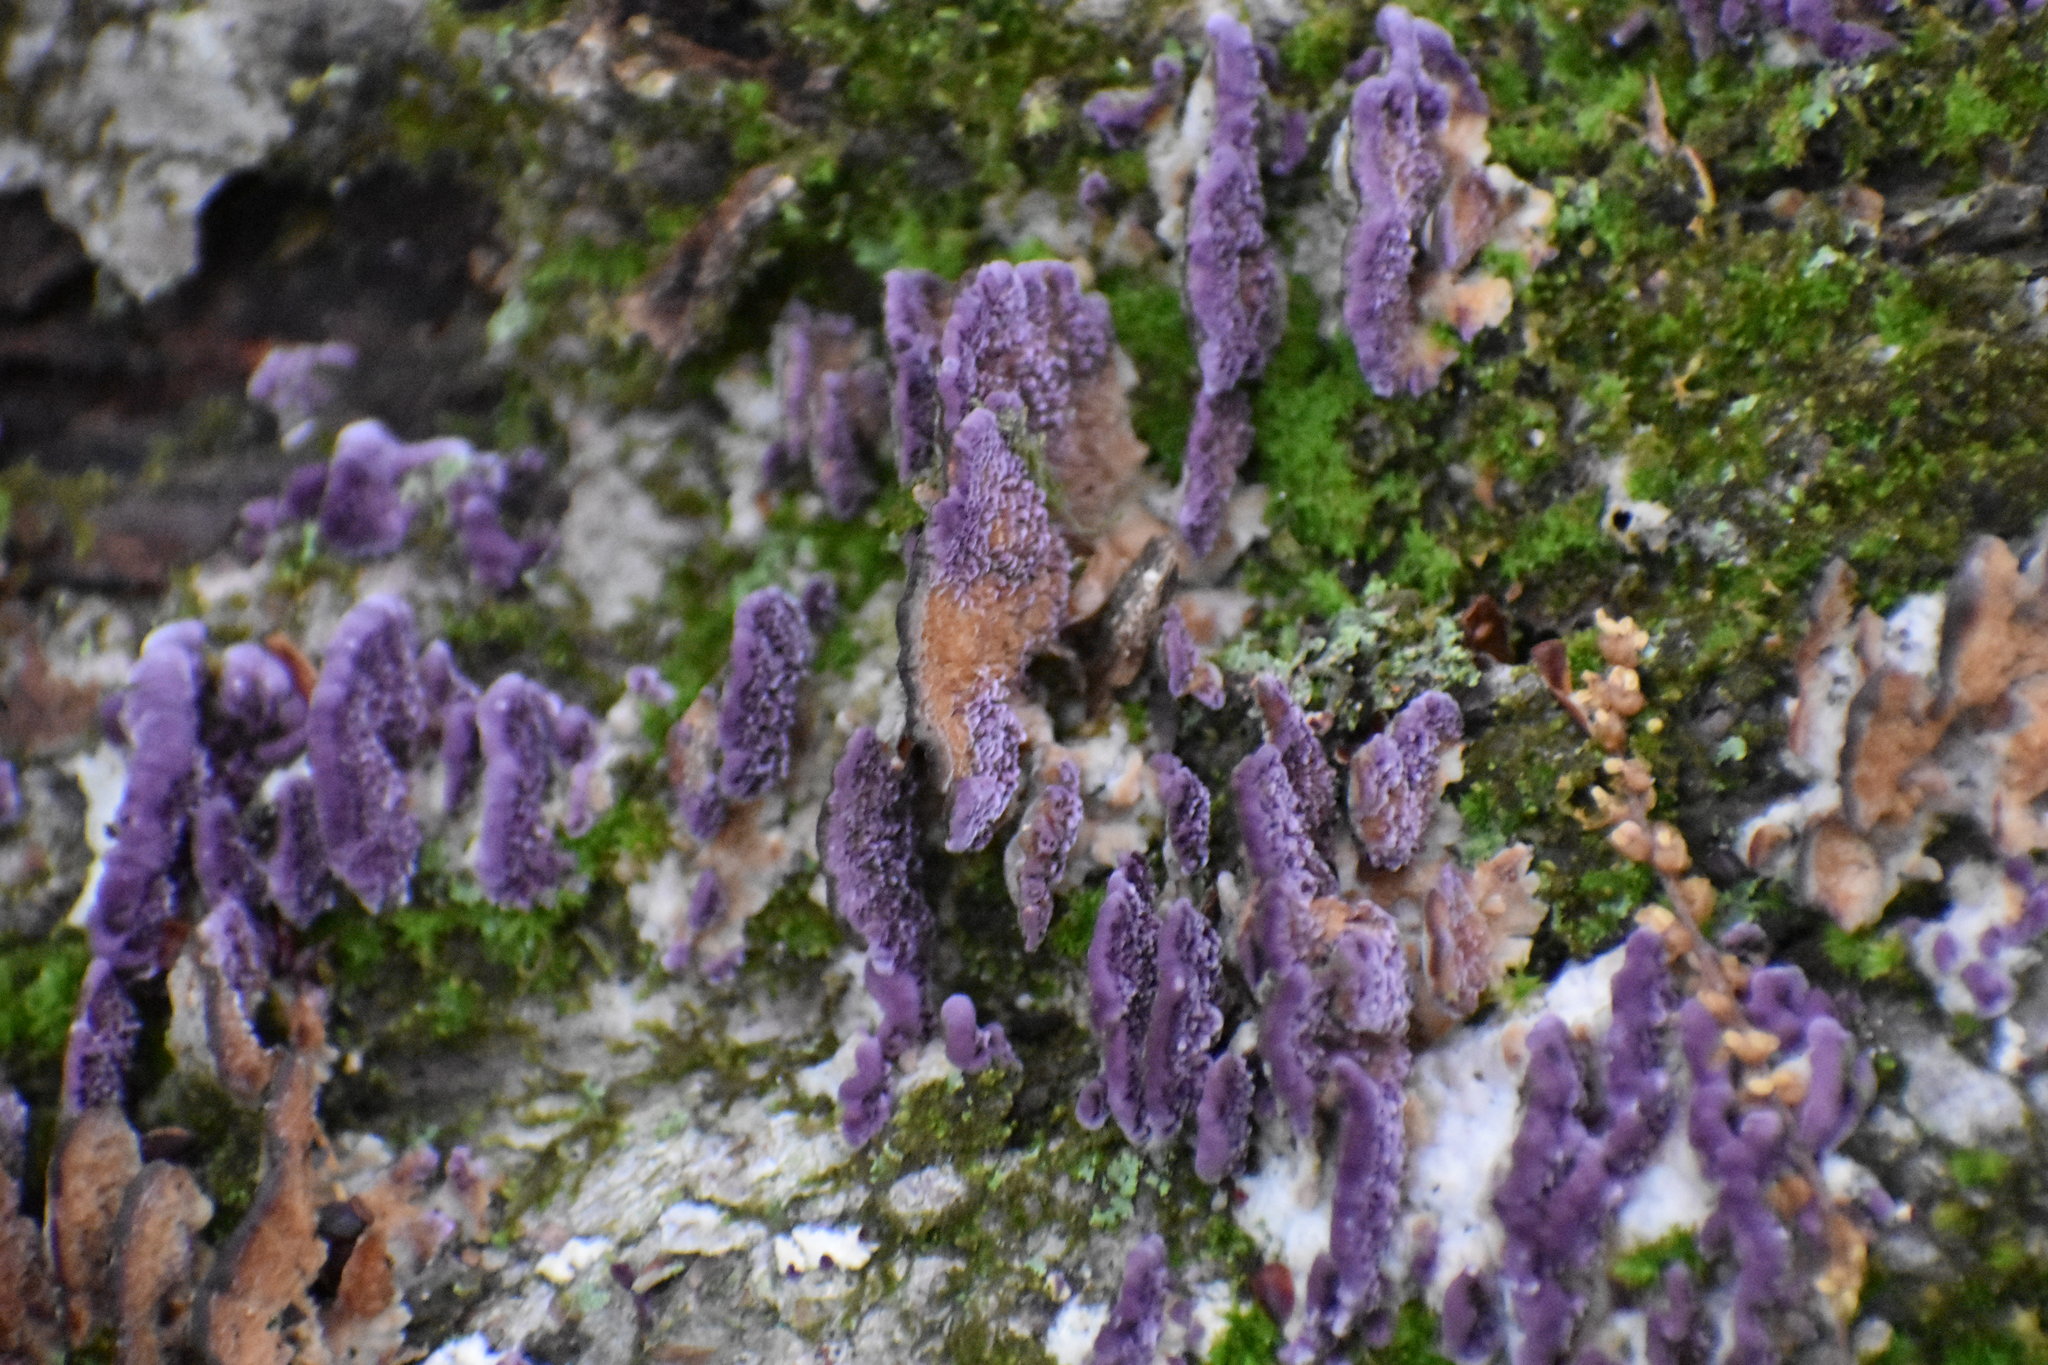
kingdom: Fungi
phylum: Basidiomycota
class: Agaricomycetes
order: Hymenochaetales
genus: Trichaptum
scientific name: Trichaptum biforme
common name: Violet-toothed polypore
